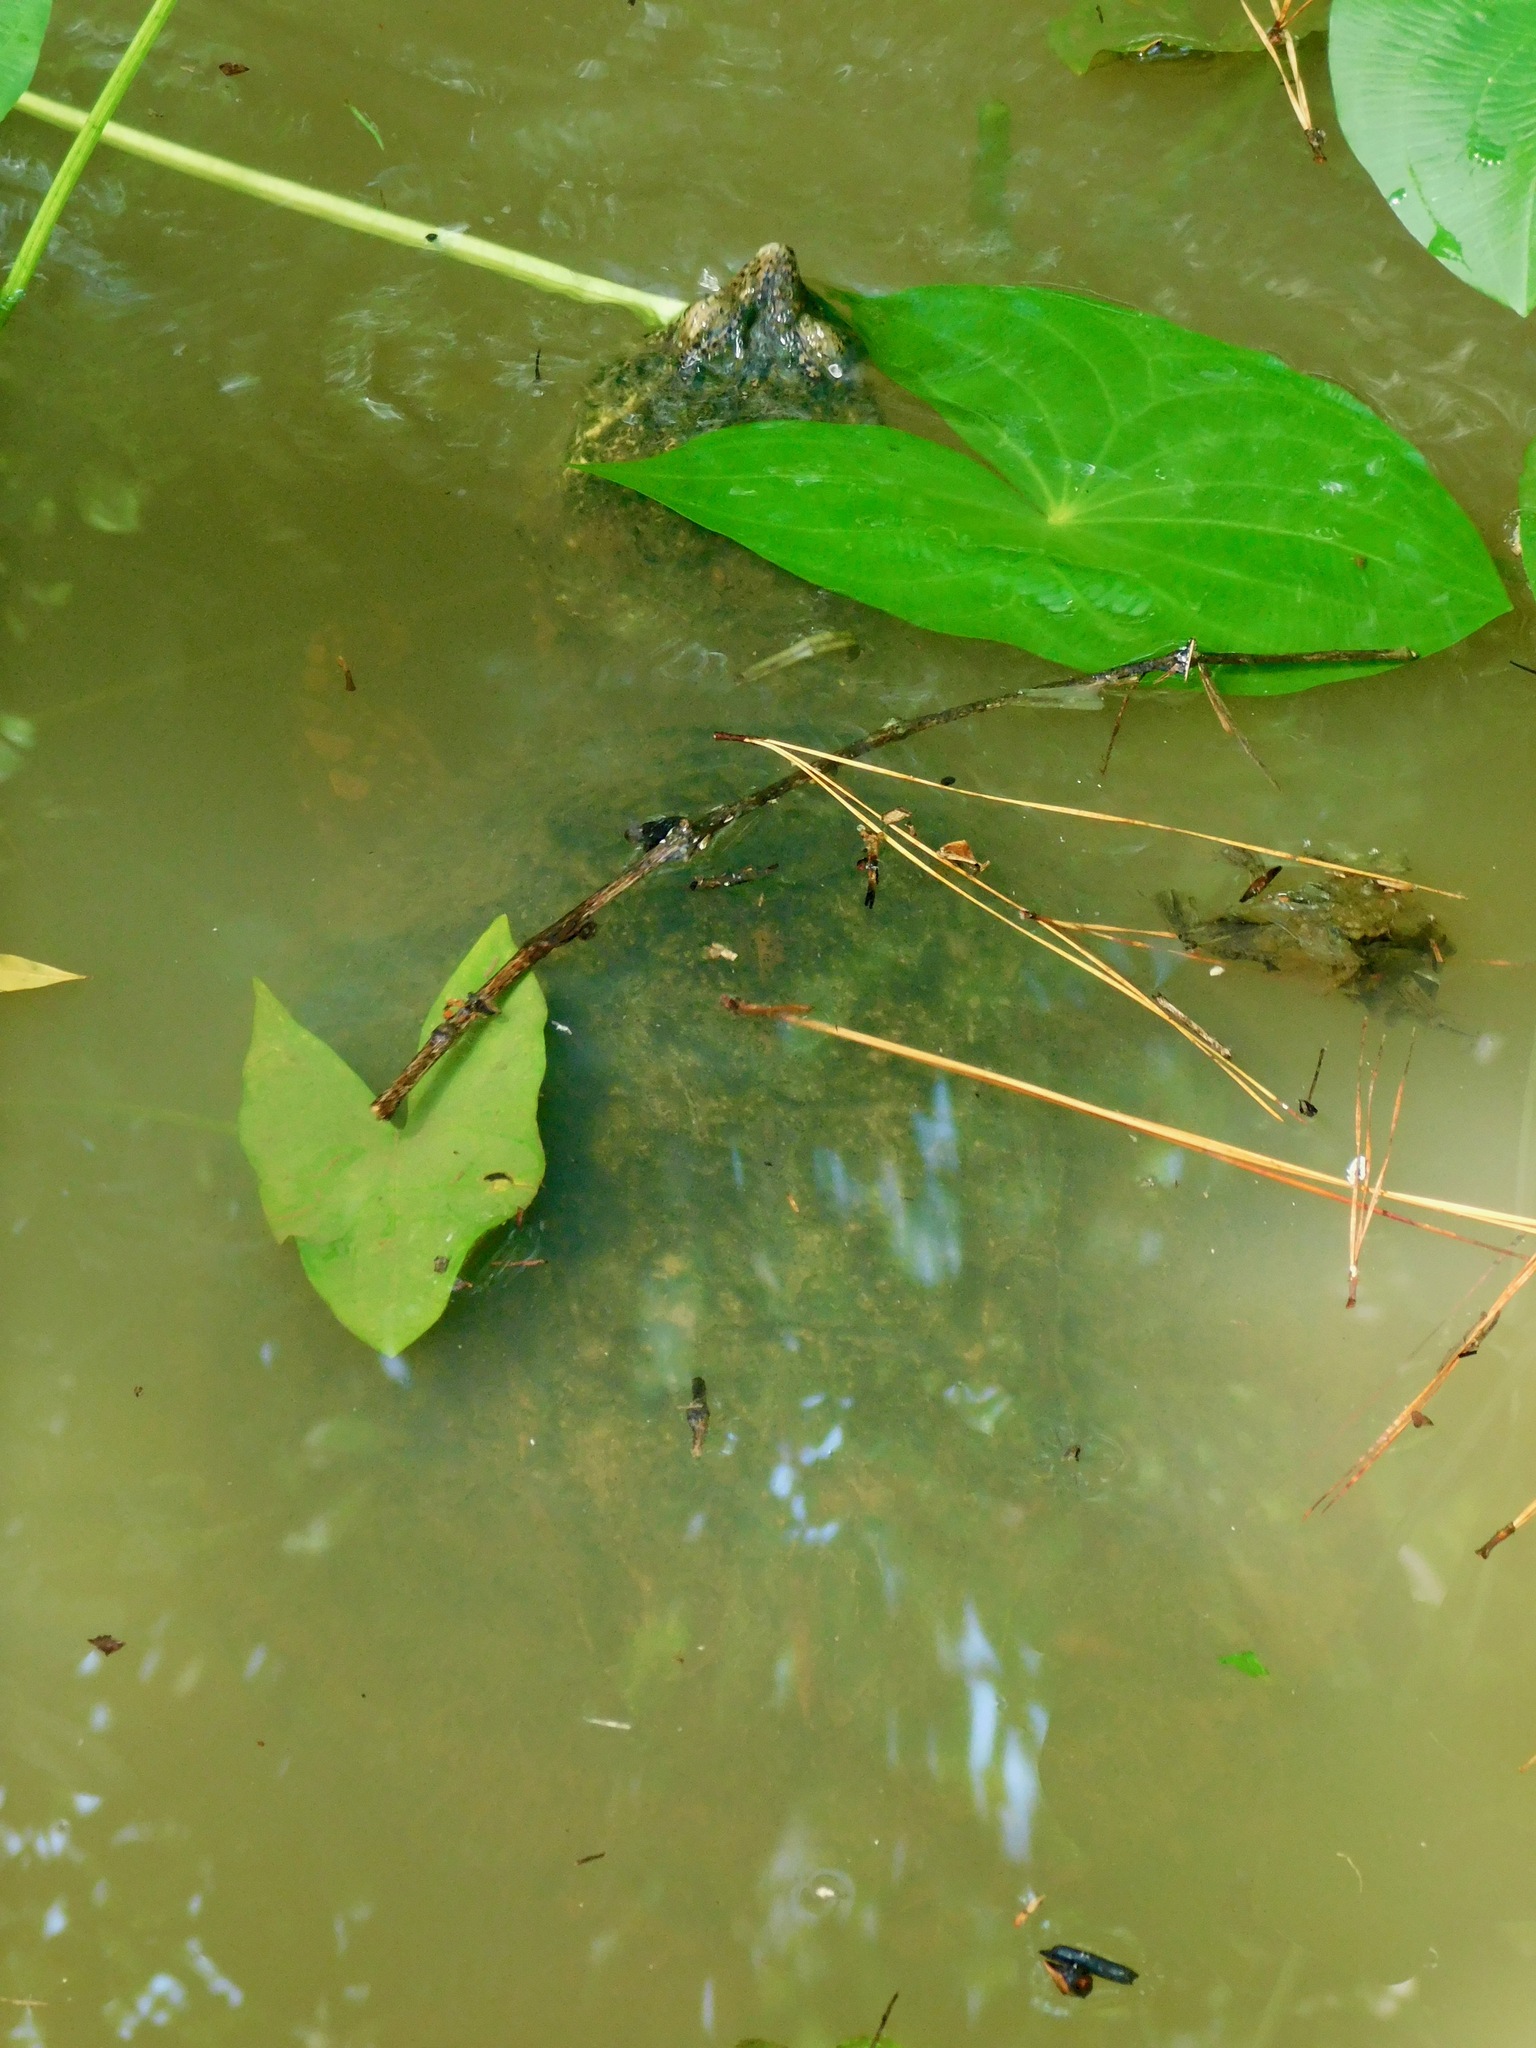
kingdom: Animalia
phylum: Chordata
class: Testudines
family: Chelydridae
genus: Chelydra
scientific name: Chelydra serpentina
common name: Common snapping turtle
